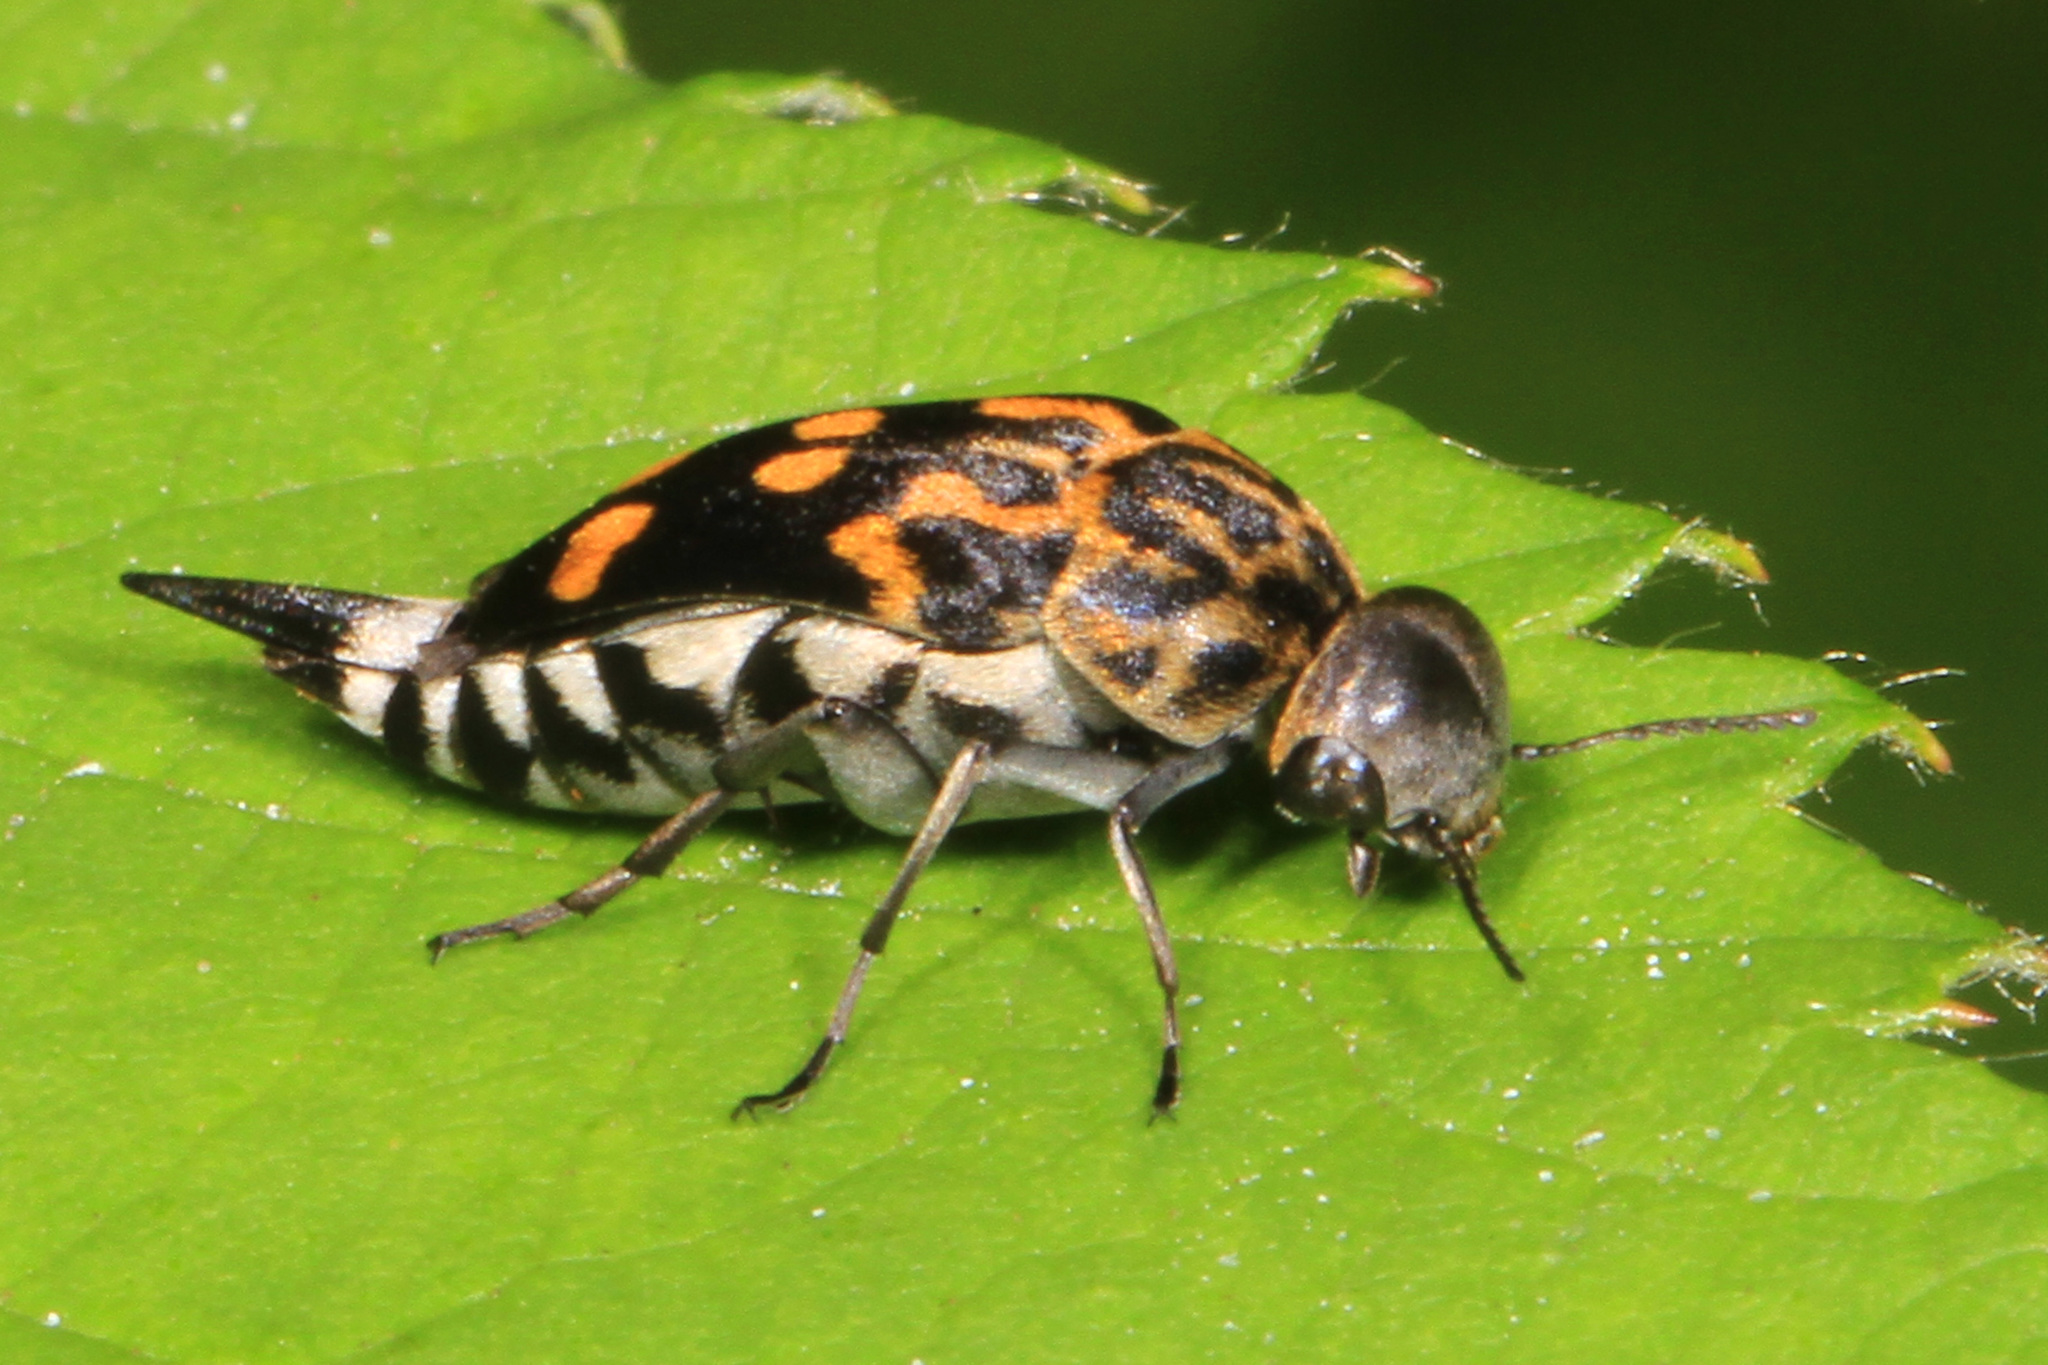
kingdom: Animalia
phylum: Arthropoda
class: Insecta
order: Coleoptera
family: Mordellidae
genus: Hoshihananomia
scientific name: Hoshihananomia octopunctata
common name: Eight-spotted tumbling flower beetle
